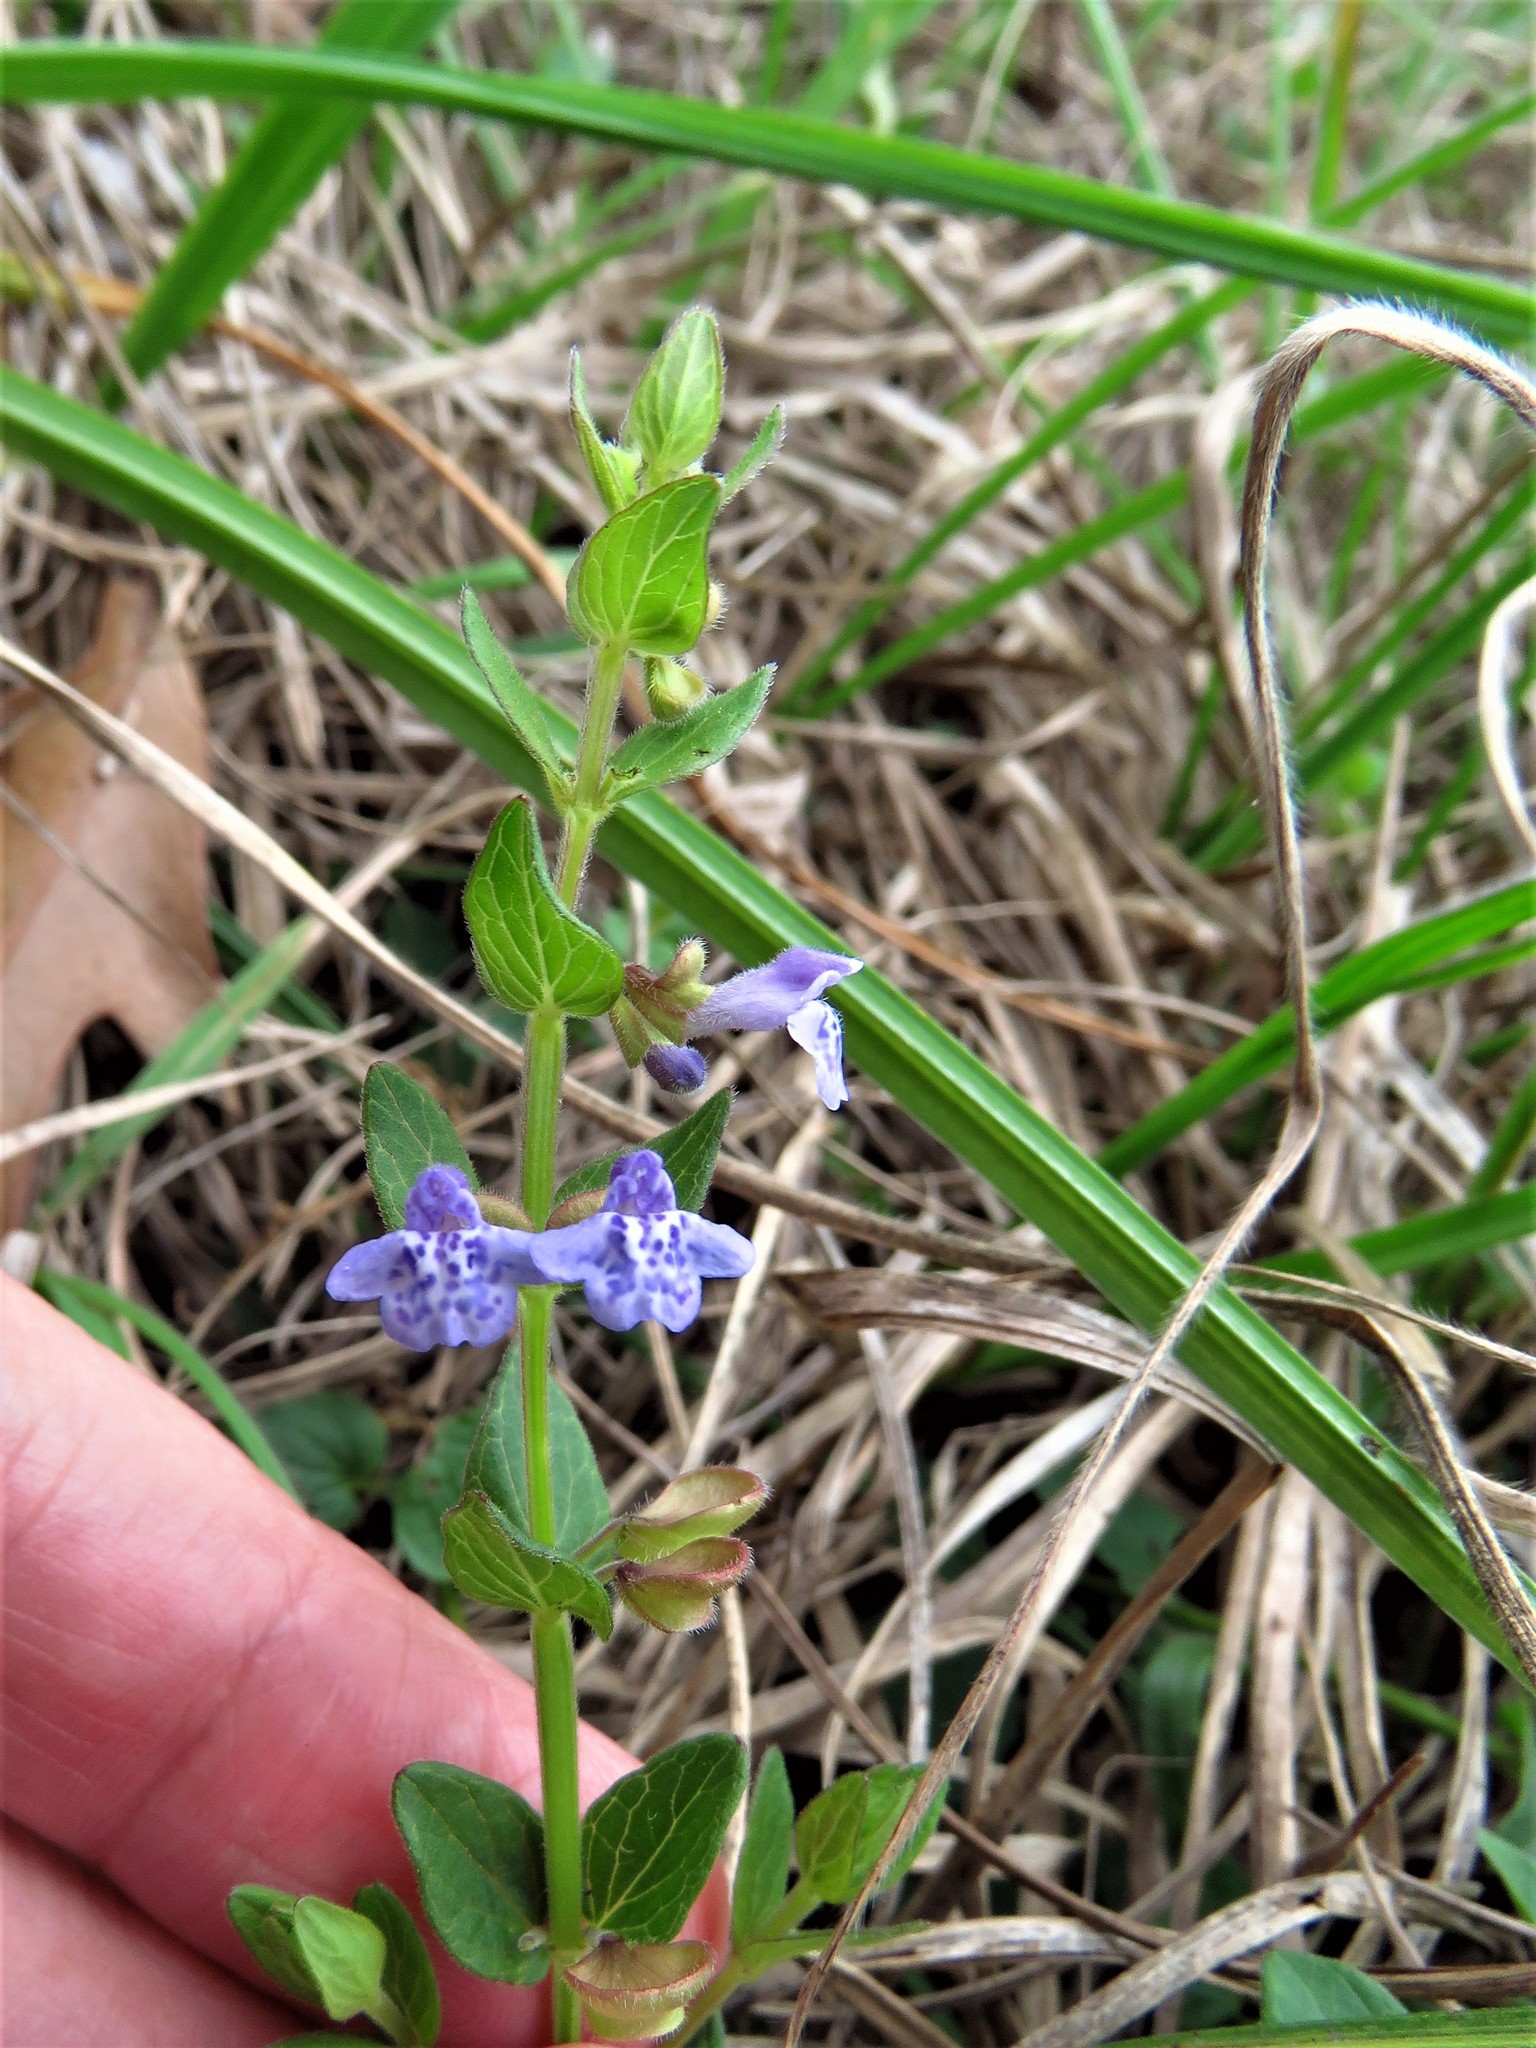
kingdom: Plantae
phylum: Tracheophyta
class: Magnoliopsida
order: Lamiales
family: Lamiaceae
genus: Scutellaria
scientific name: Scutellaria parvula
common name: Little scullcap
